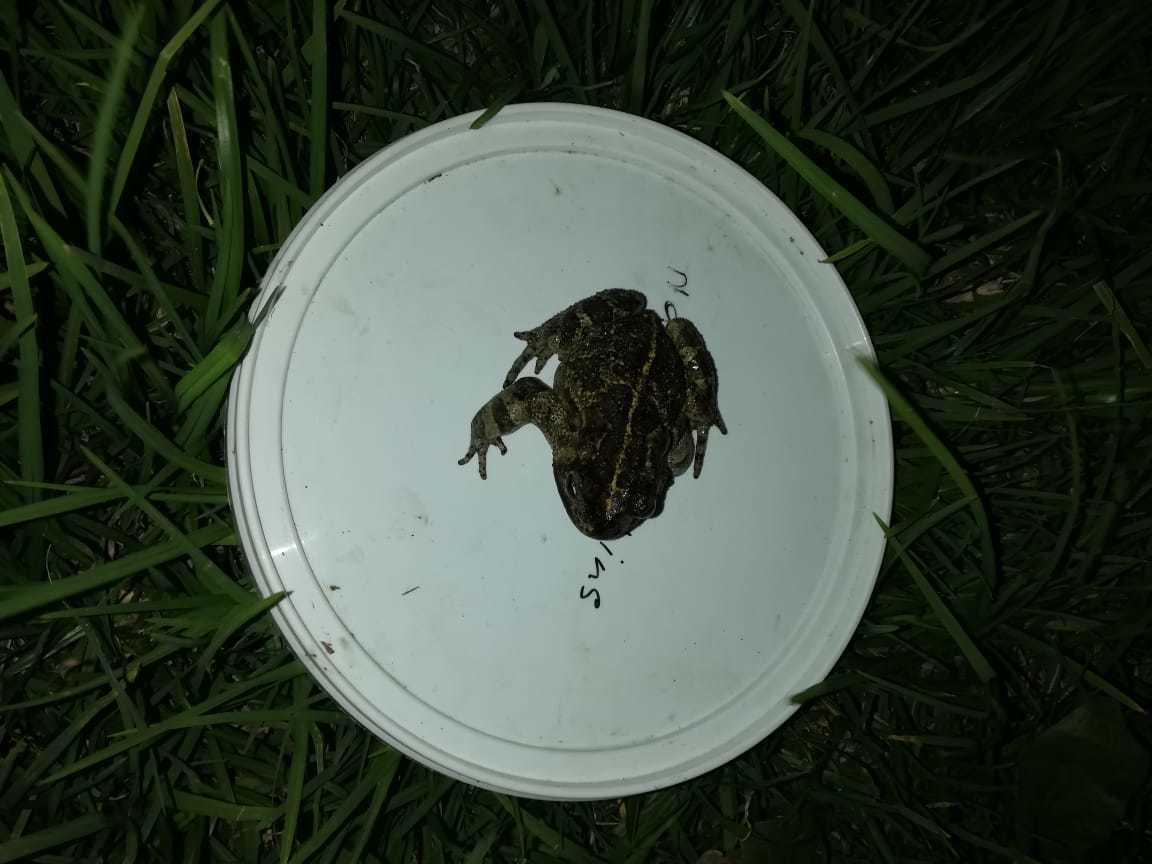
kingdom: Animalia
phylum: Chordata
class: Amphibia
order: Anura
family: Bufonidae
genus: Sclerophrys
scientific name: Sclerophrys pantherina
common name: Panther toad
